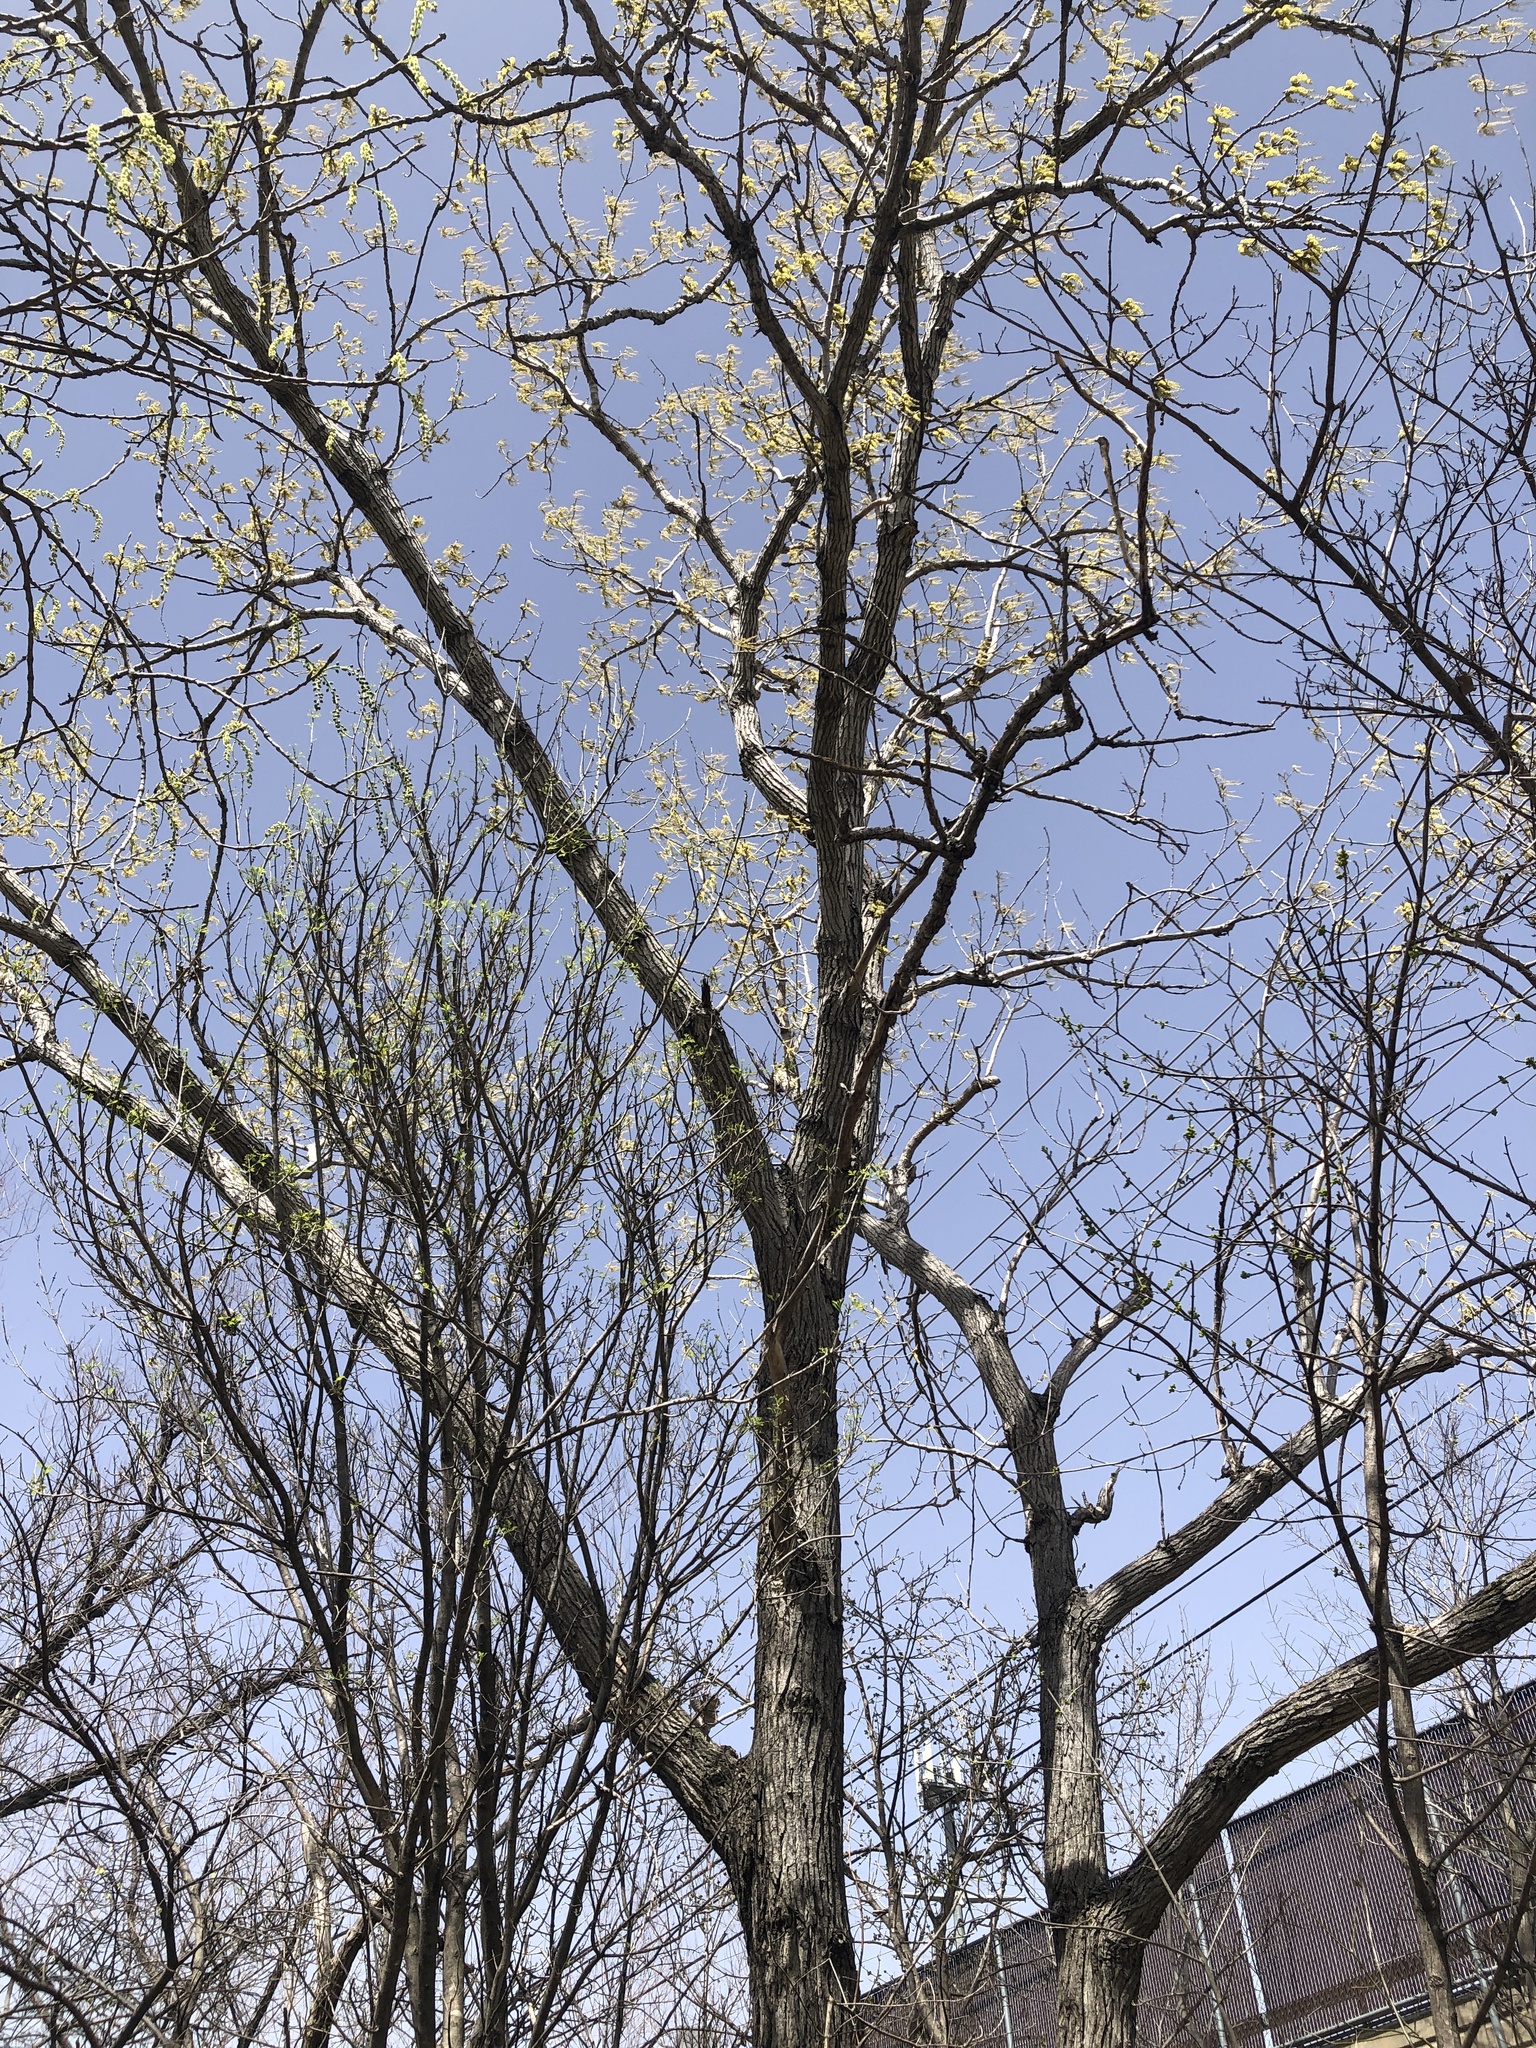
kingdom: Plantae
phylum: Tracheophyta
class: Magnoliopsida
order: Malpighiales
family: Salicaceae
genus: Populus
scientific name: Populus deltoides
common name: Eastern cottonwood
